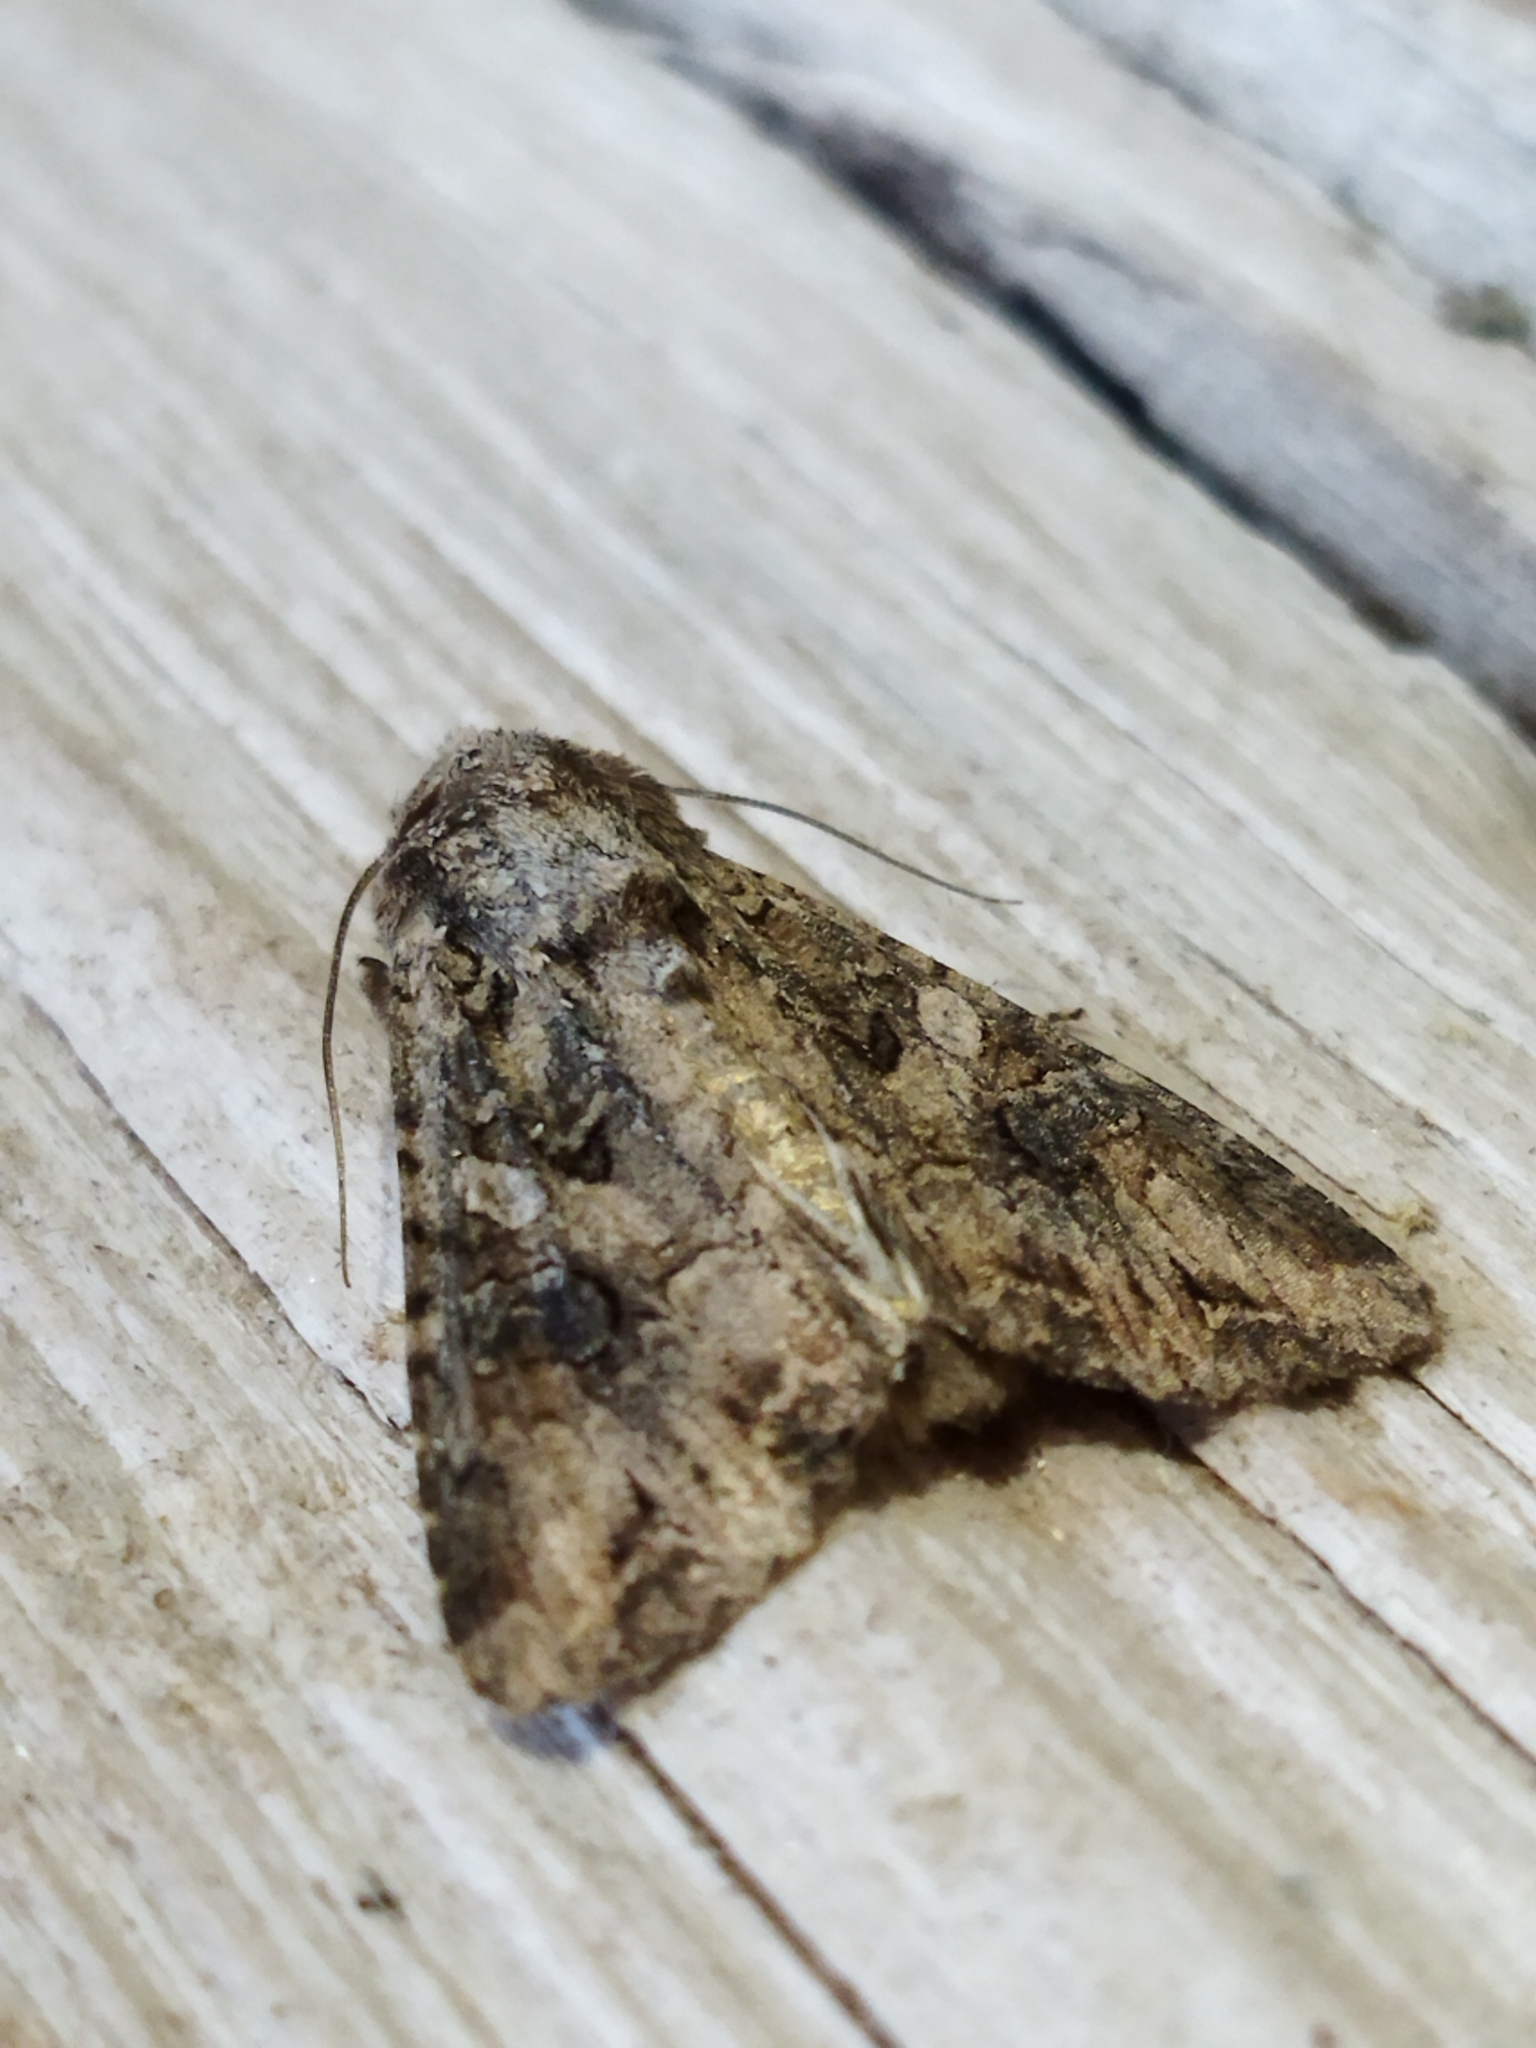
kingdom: Animalia
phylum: Arthropoda
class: Insecta
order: Lepidoptera
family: Noctuidae
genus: Anarta
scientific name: Anarta trifolii
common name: Clover cutworm moth
